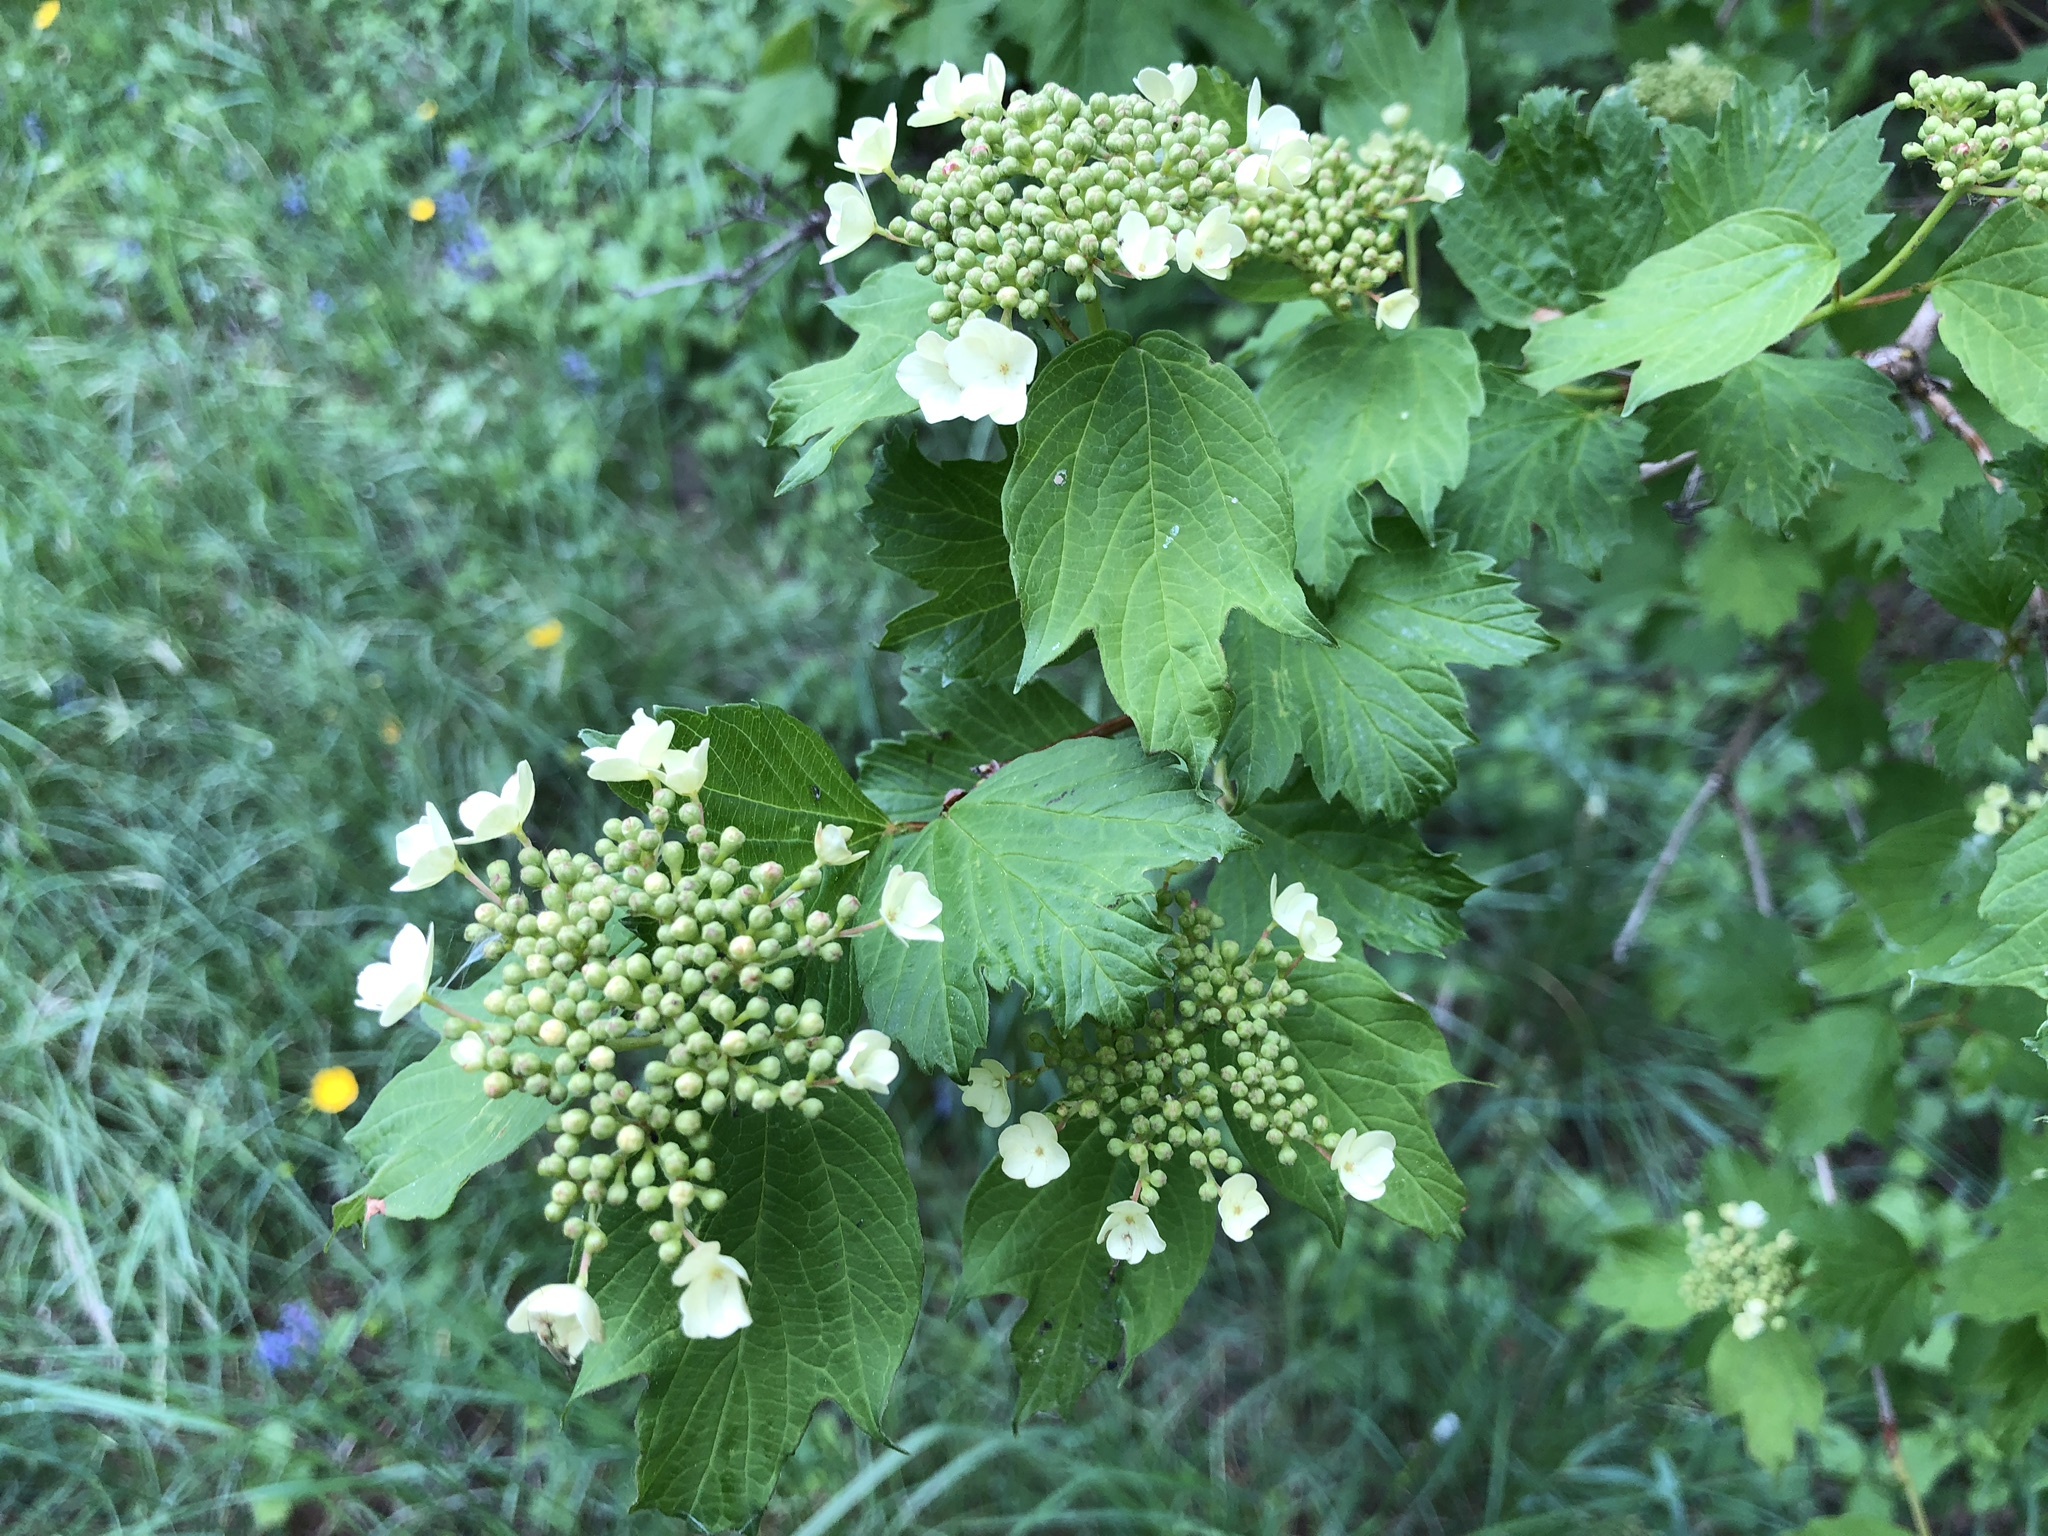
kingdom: Plantae
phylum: Tracheophyta
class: Magnoliopsida
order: Dipsacales
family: Viburnaceae
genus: Viburnum
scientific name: Viburnum opulus
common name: Guelder-rose
